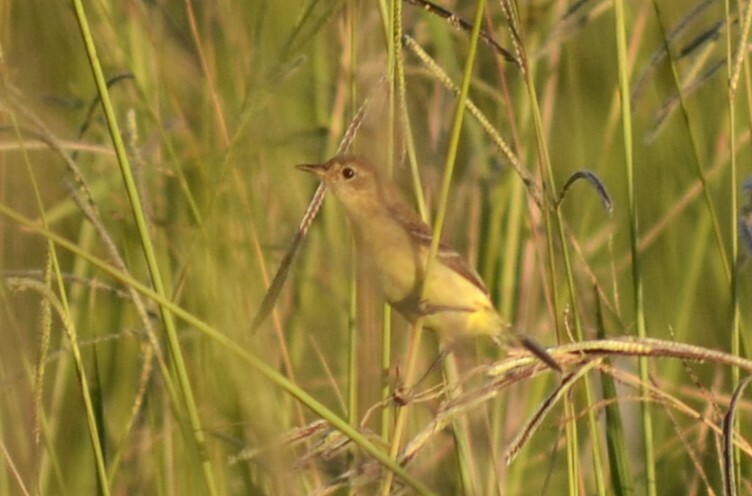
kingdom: Animalia
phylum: Chordata
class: Aves
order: Passeriformes
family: Tyrannidae
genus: Pseudocolopteryx
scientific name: Pseudocolopteryx flaviventris
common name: Warbling doradito
